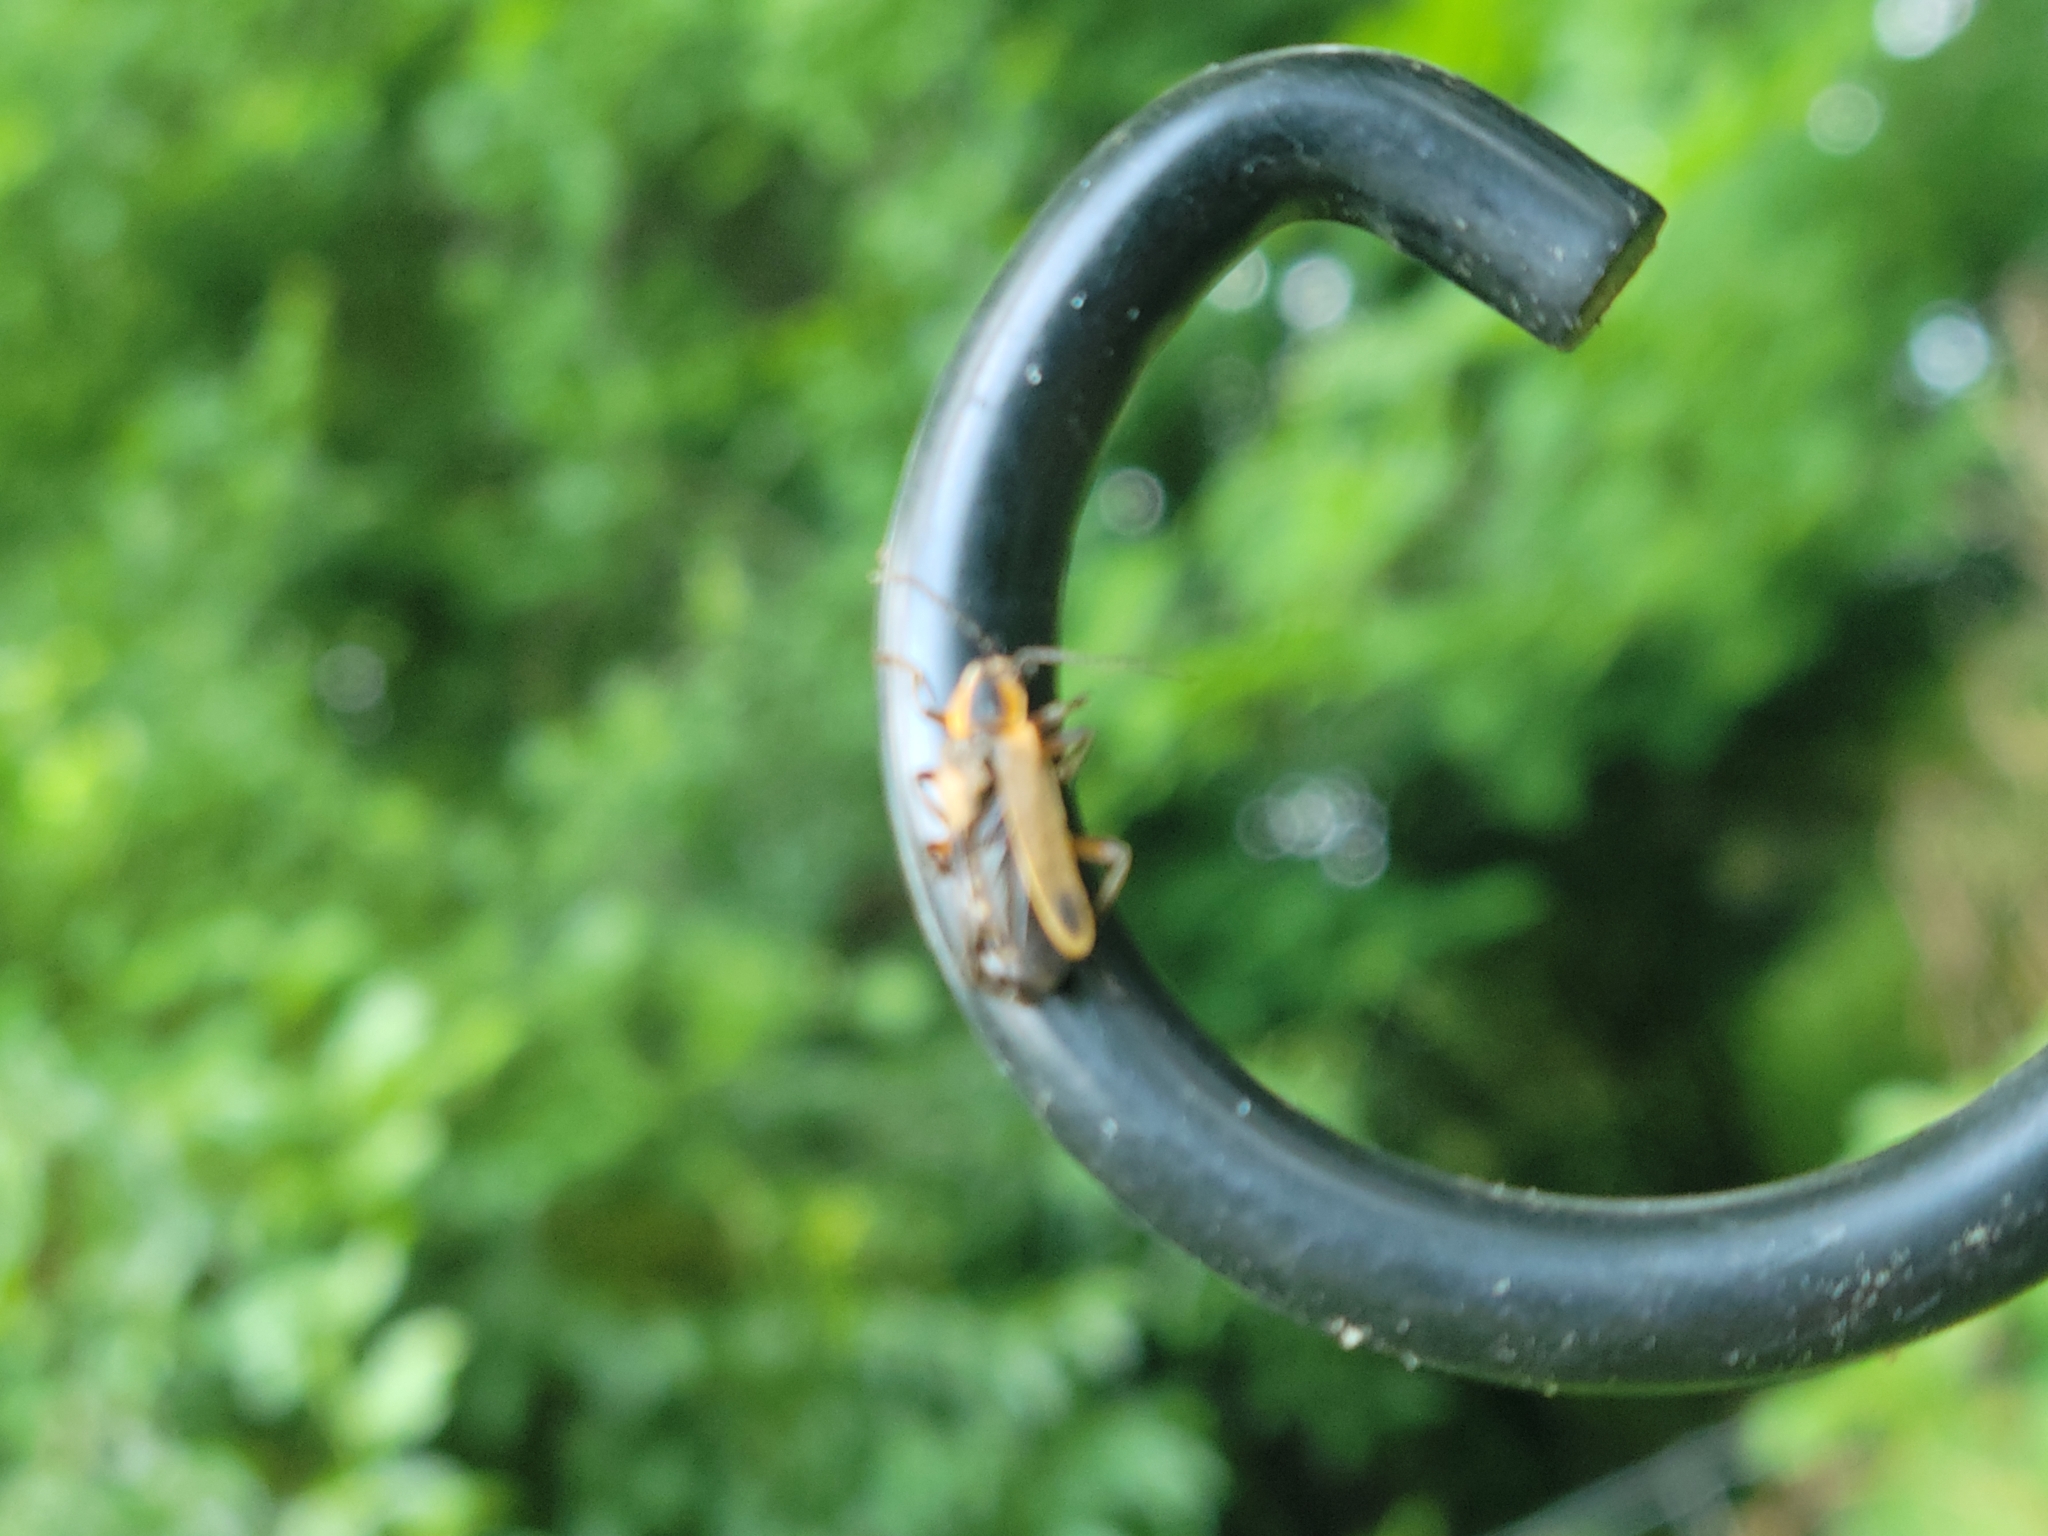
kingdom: Animalia
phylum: Arthropoda
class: Insecta
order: Coleoptera
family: Cantharidae
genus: Chauliognathus
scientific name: Chauliognathus marginatus
